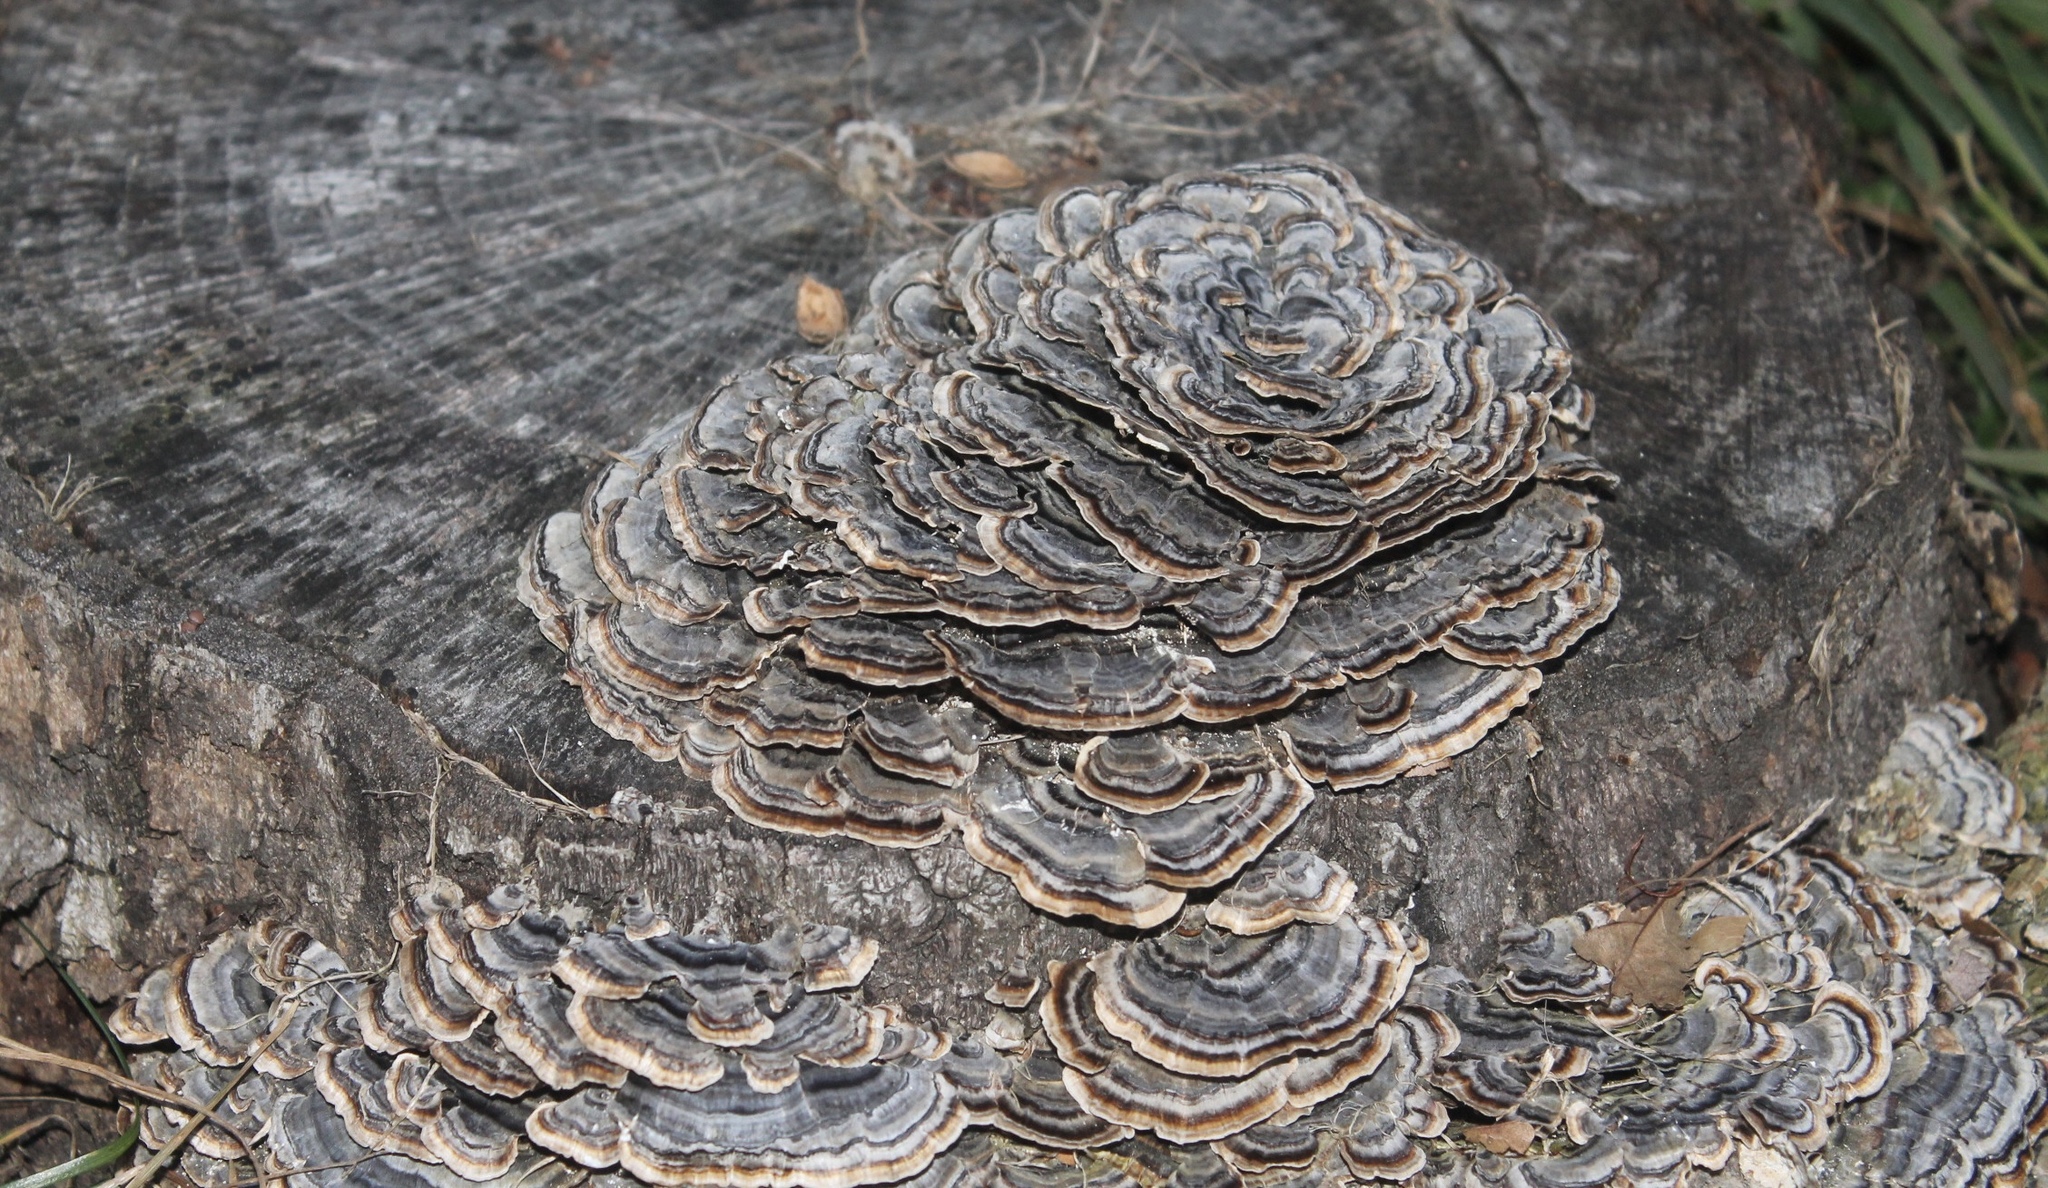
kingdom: Fungi
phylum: Basidiomycota
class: Agaricomycetes
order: Polyporales
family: Polyporaceae
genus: Trametes
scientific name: Trametes versicolor
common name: Turkeytail
